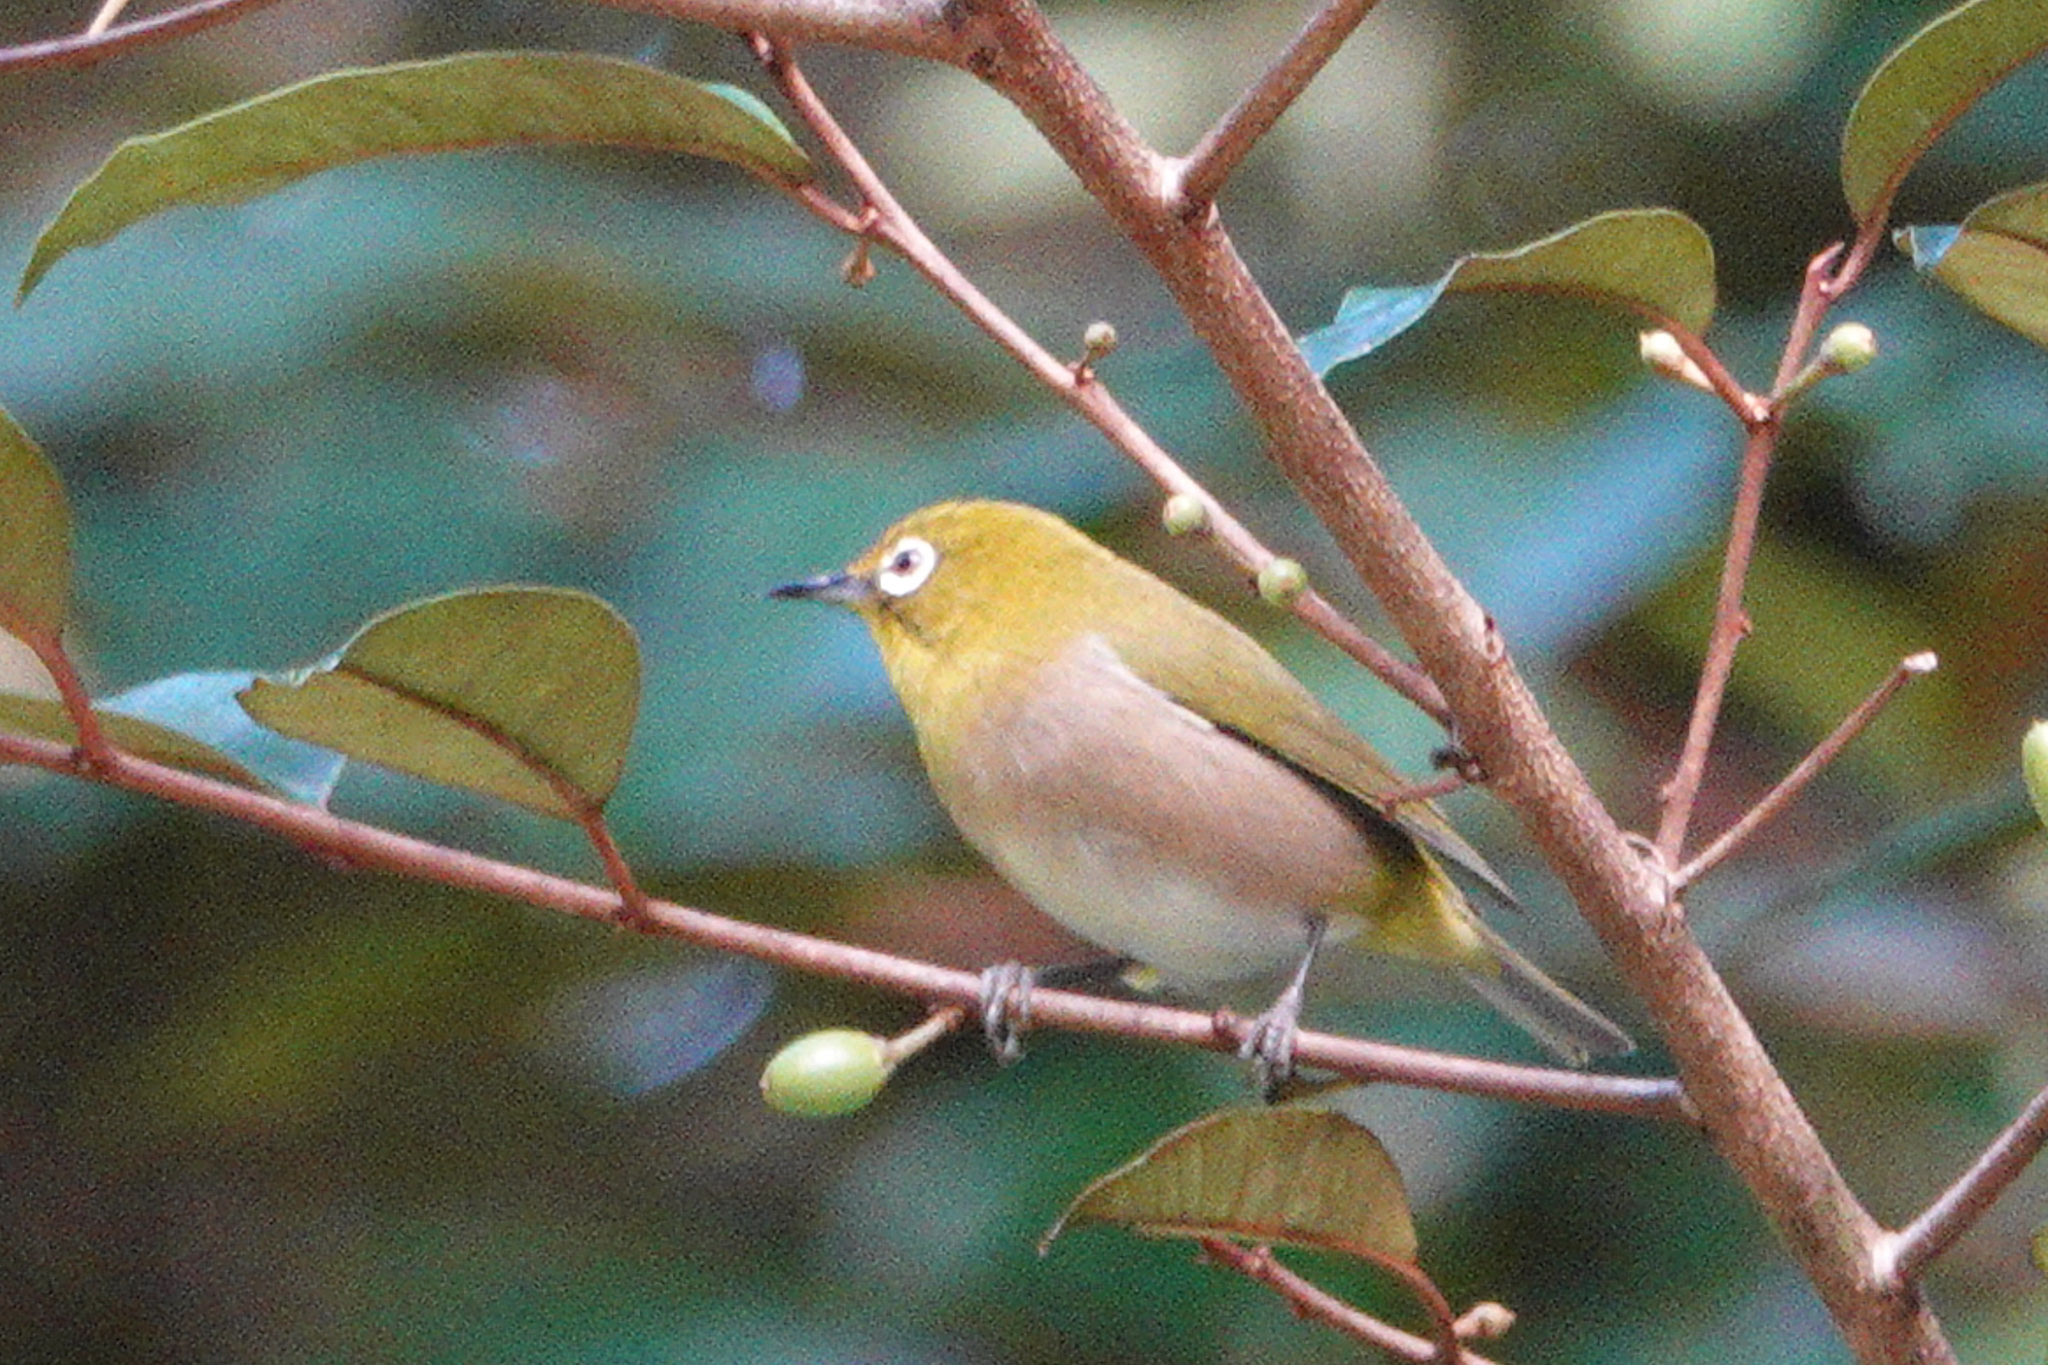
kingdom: Animalia
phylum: Chordata
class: Aves
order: Passeriformes
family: Zosteropidae
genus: Zosterops
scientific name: Zosterops japonicus
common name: Japanese white-eye
